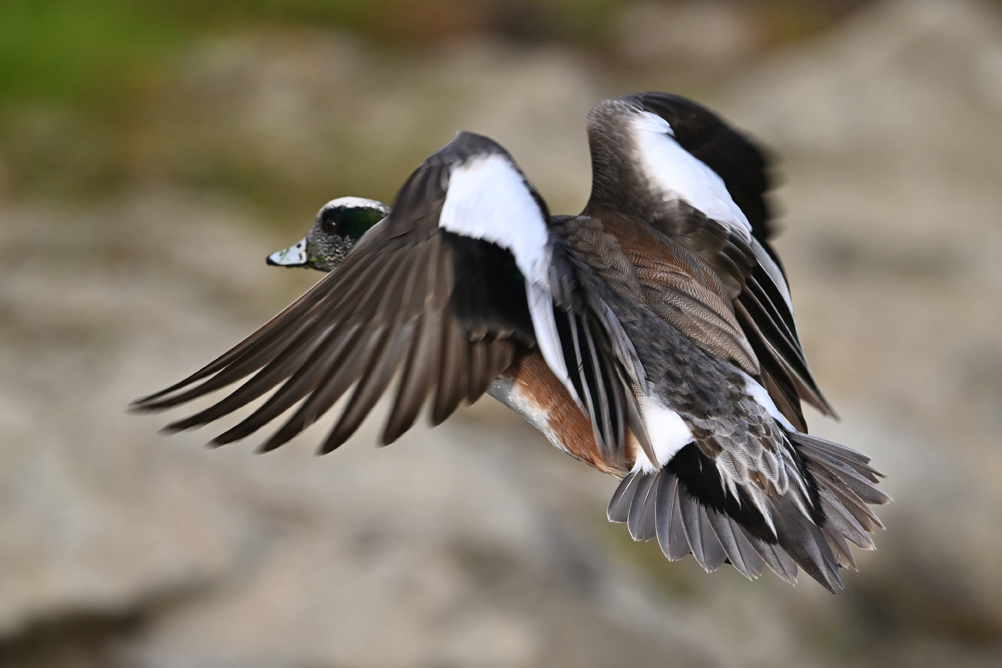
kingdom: Animalia
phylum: Chordata
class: Aves
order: Anseriformes
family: Anatidae
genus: Mareca
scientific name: Mareca americana
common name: American wigeon
